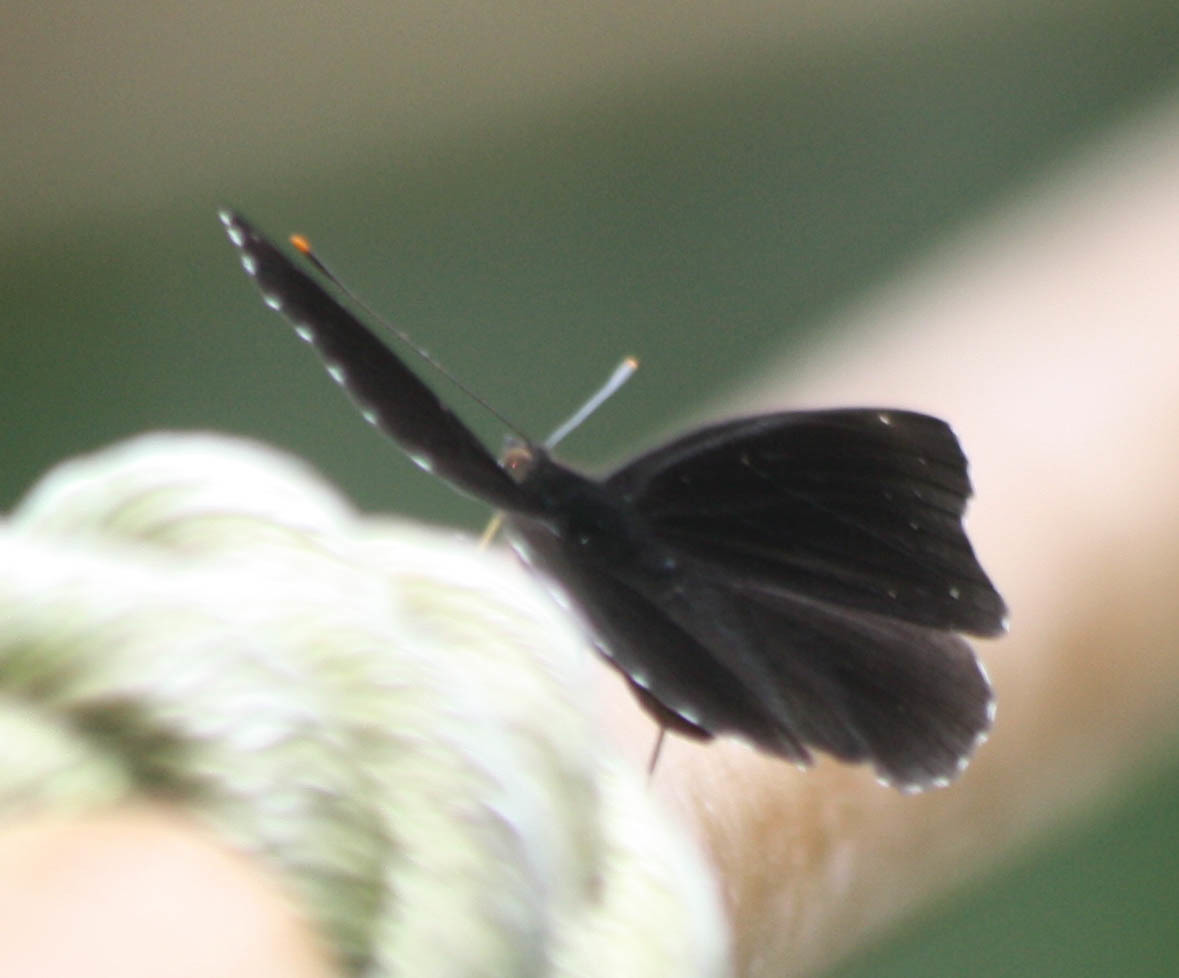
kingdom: Animalia
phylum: Arthropoda
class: Insecta
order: Lepidoptera
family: Nymphalidae
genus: Apatura
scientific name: Apatura Rohana spec
